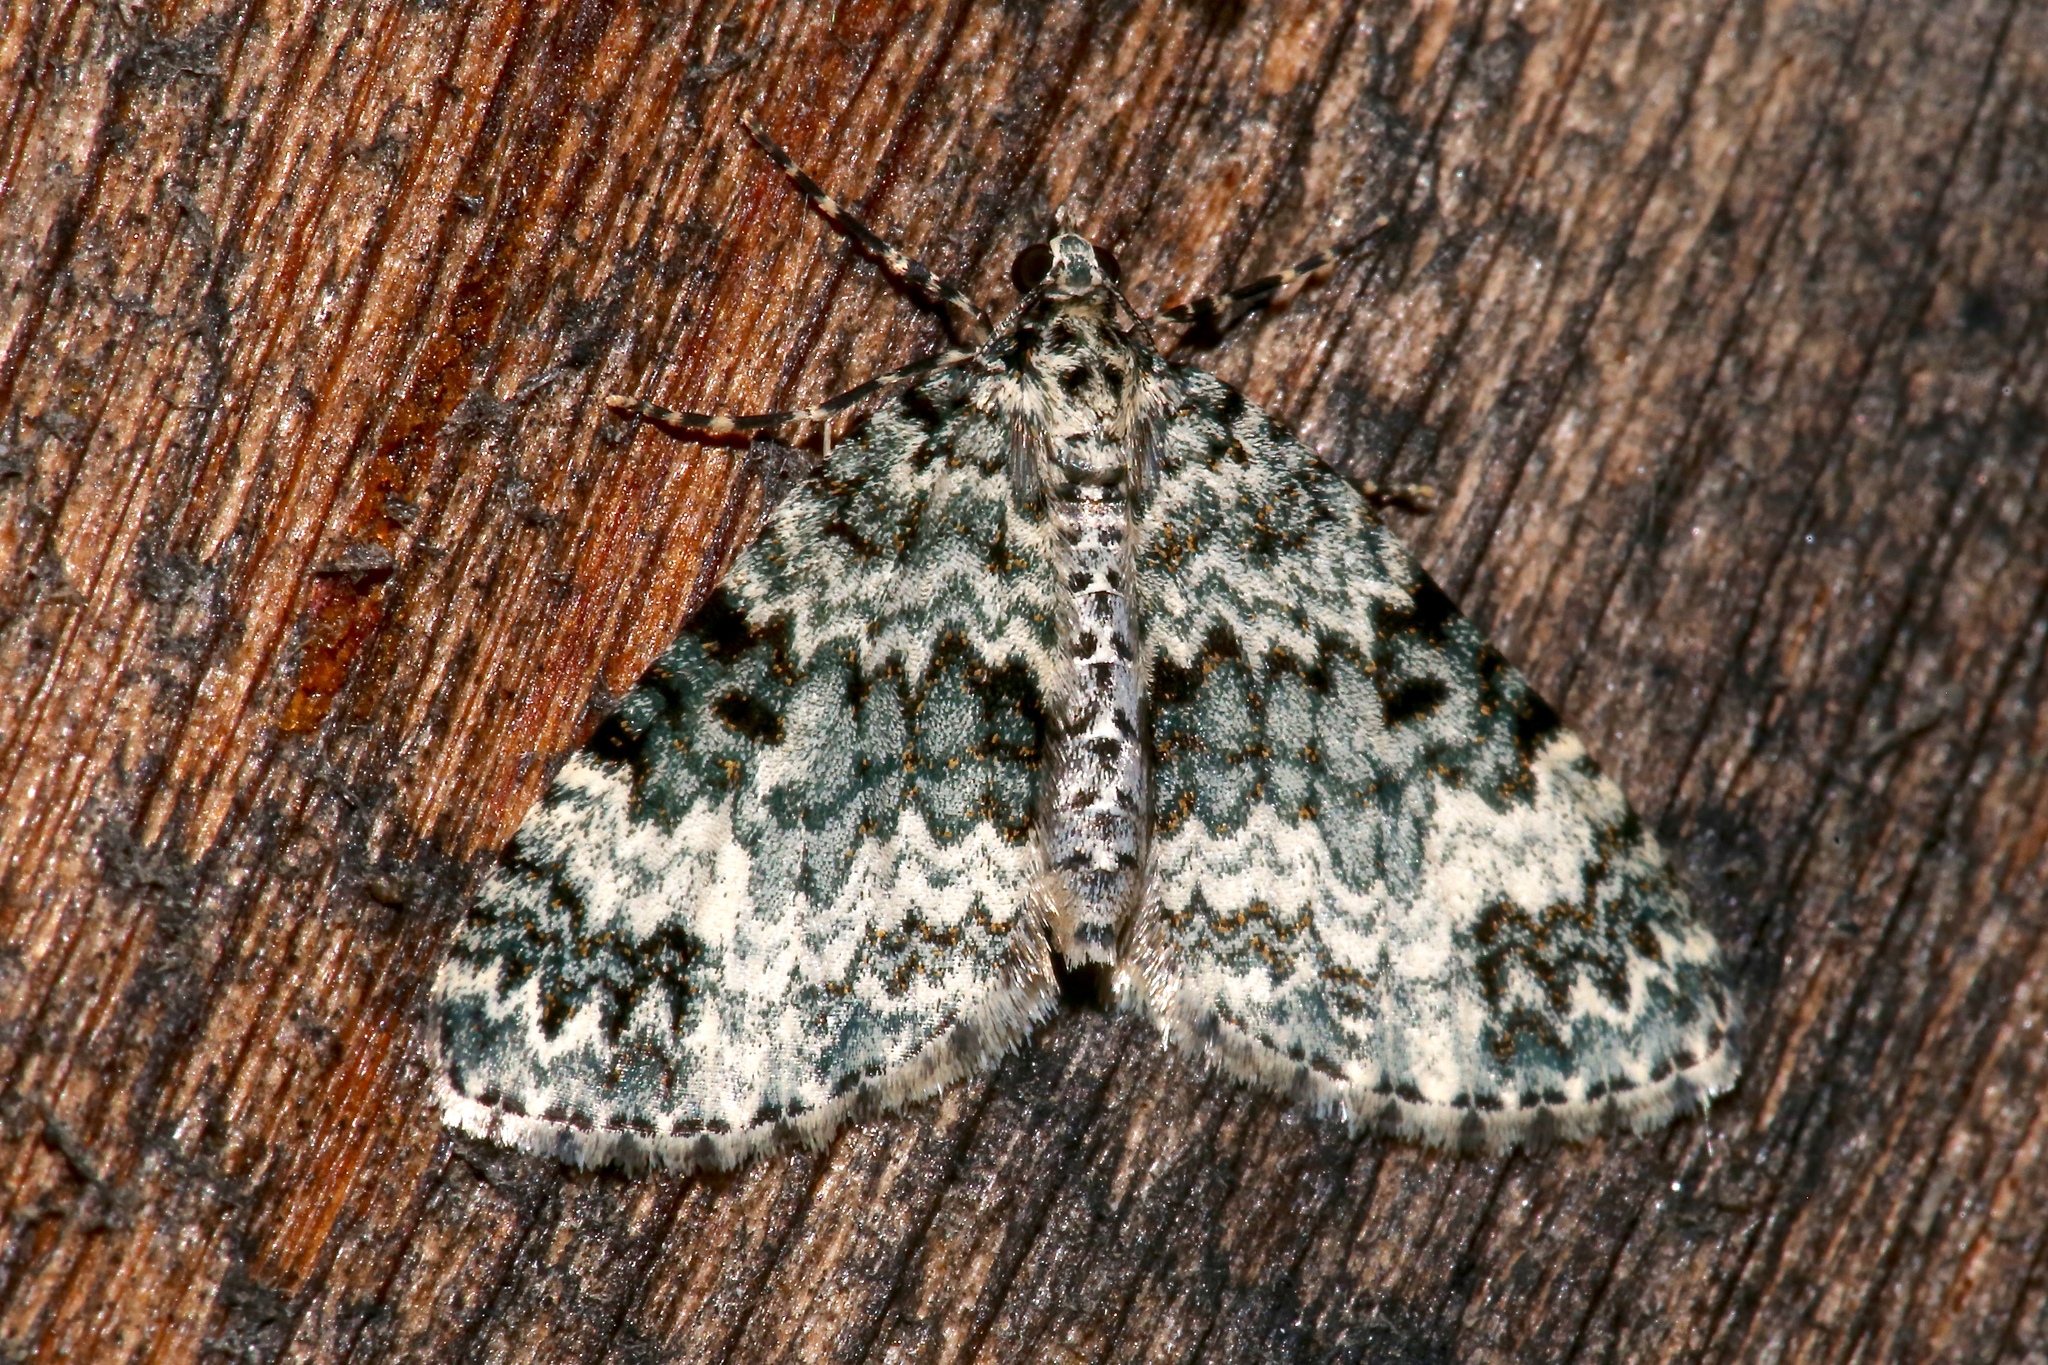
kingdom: Animalia
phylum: Arthropoda
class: Insecta
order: Lepidoptera
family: Geometridae
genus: Spargania
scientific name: Spargania magnoliata
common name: Double-banded carpet
